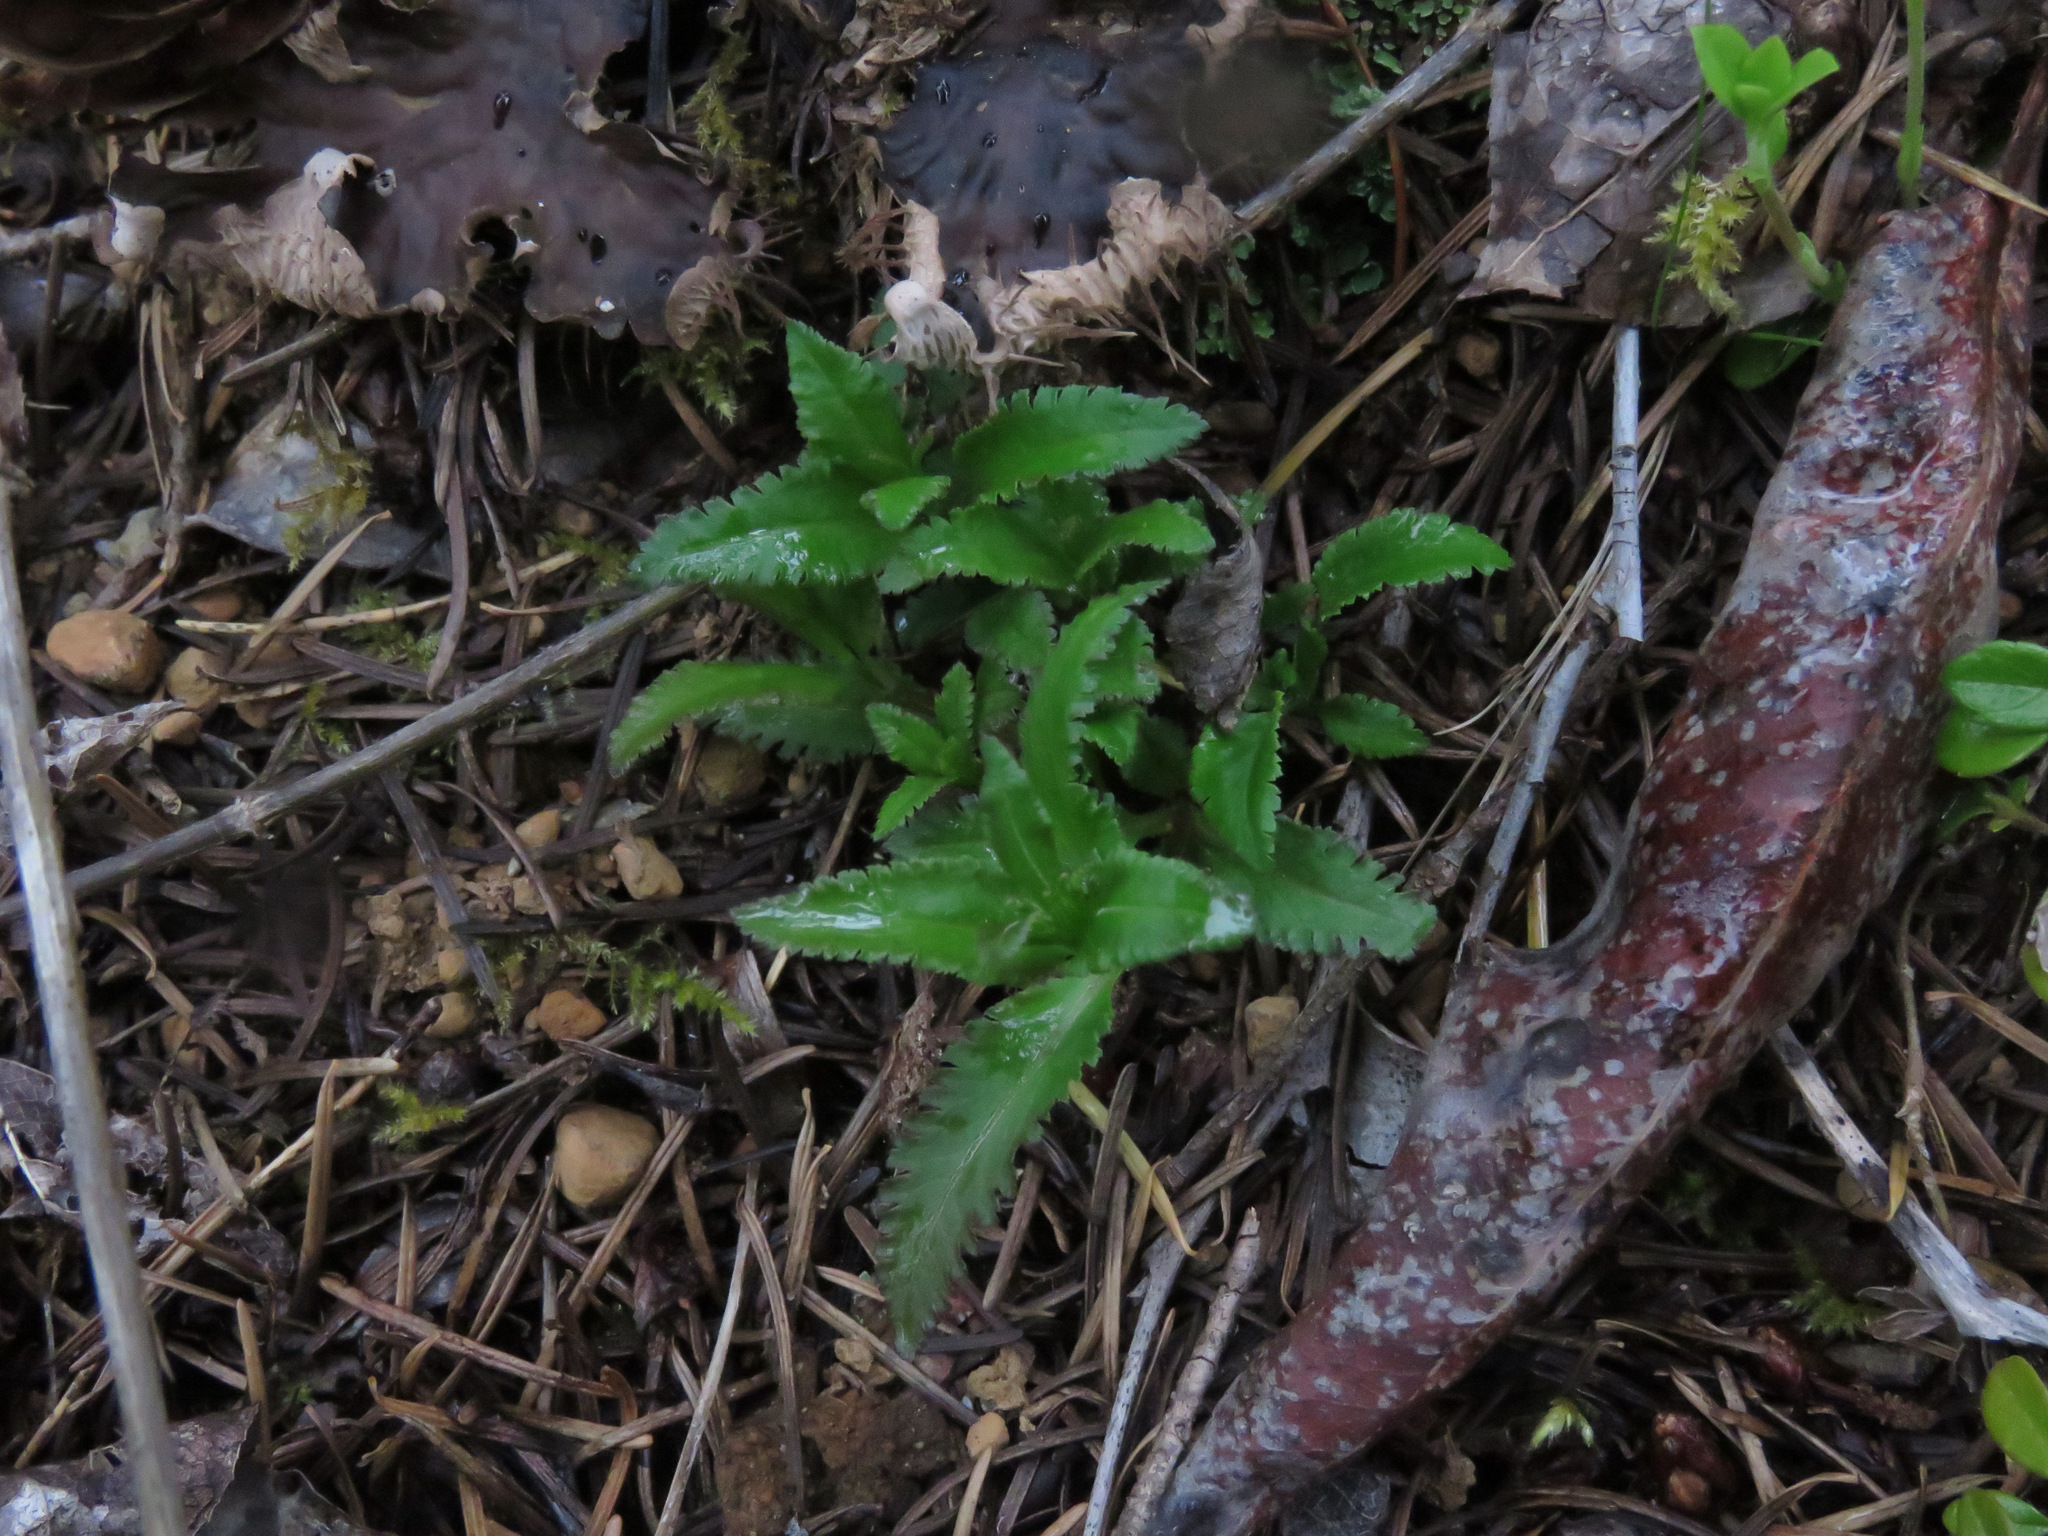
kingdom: Plantae
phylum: Tracheophyta
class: Magnoliopsida
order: Lamiales
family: Orobanchaceae
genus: Pedicularis
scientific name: Pedicularis racemosa
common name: Leafy lousewort
